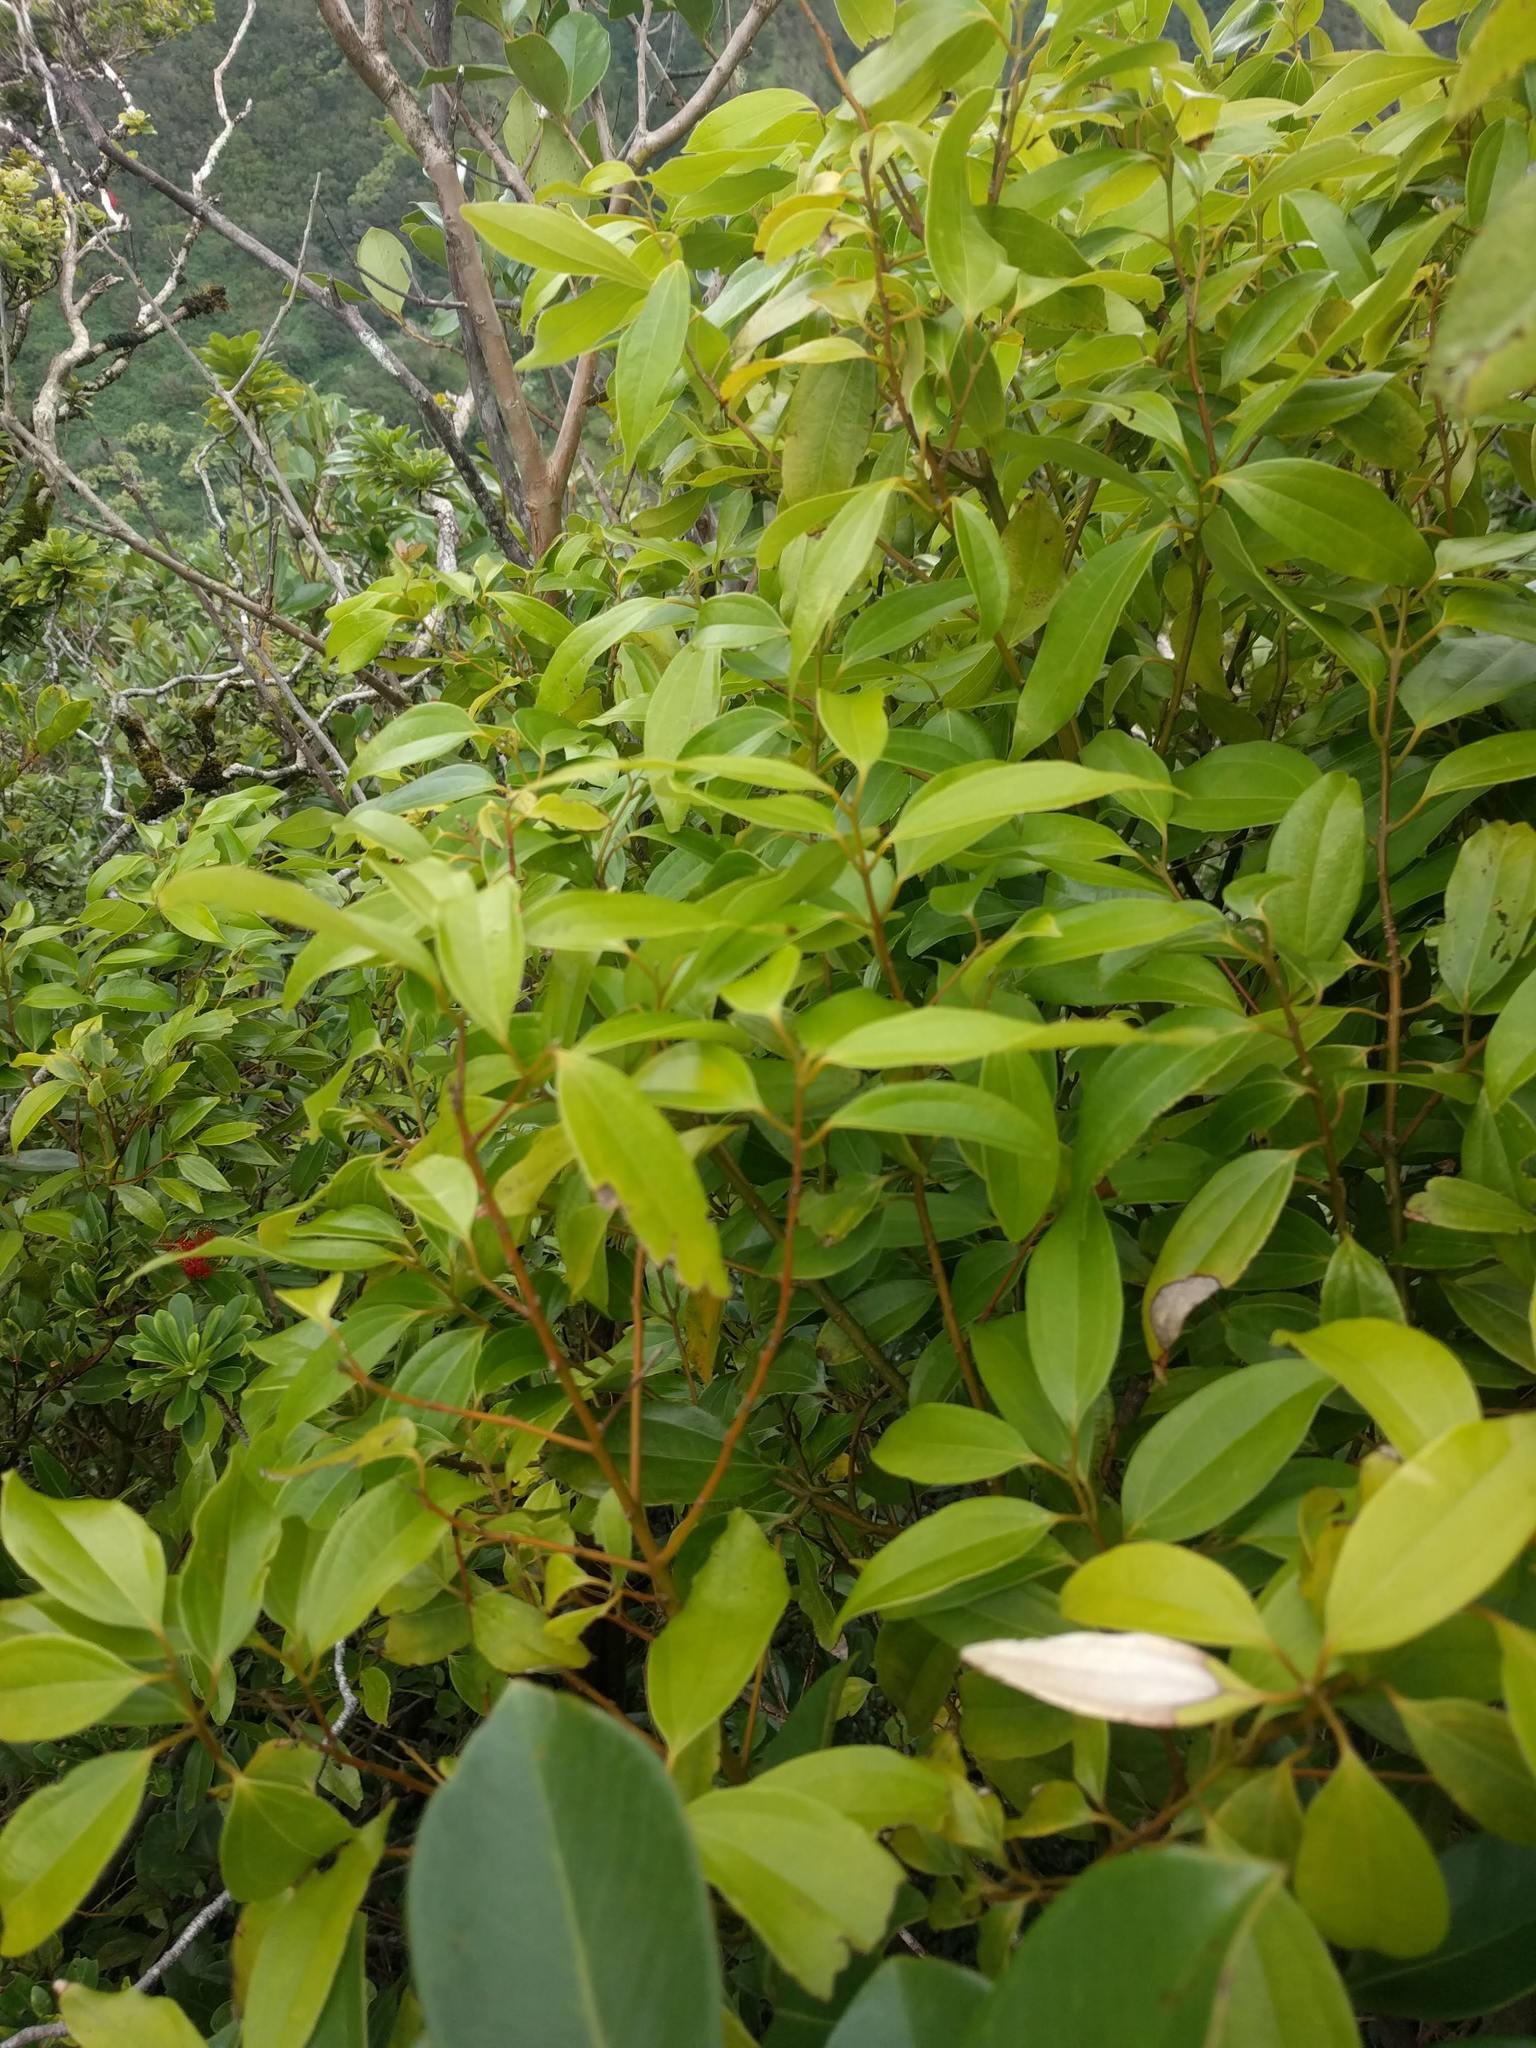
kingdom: Plantae
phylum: Tracheophyta
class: Magnoliopsida
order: Laurales
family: Lauraceae
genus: Cinnamomum
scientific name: Cinnamomum burmanni
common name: Padang cassia
